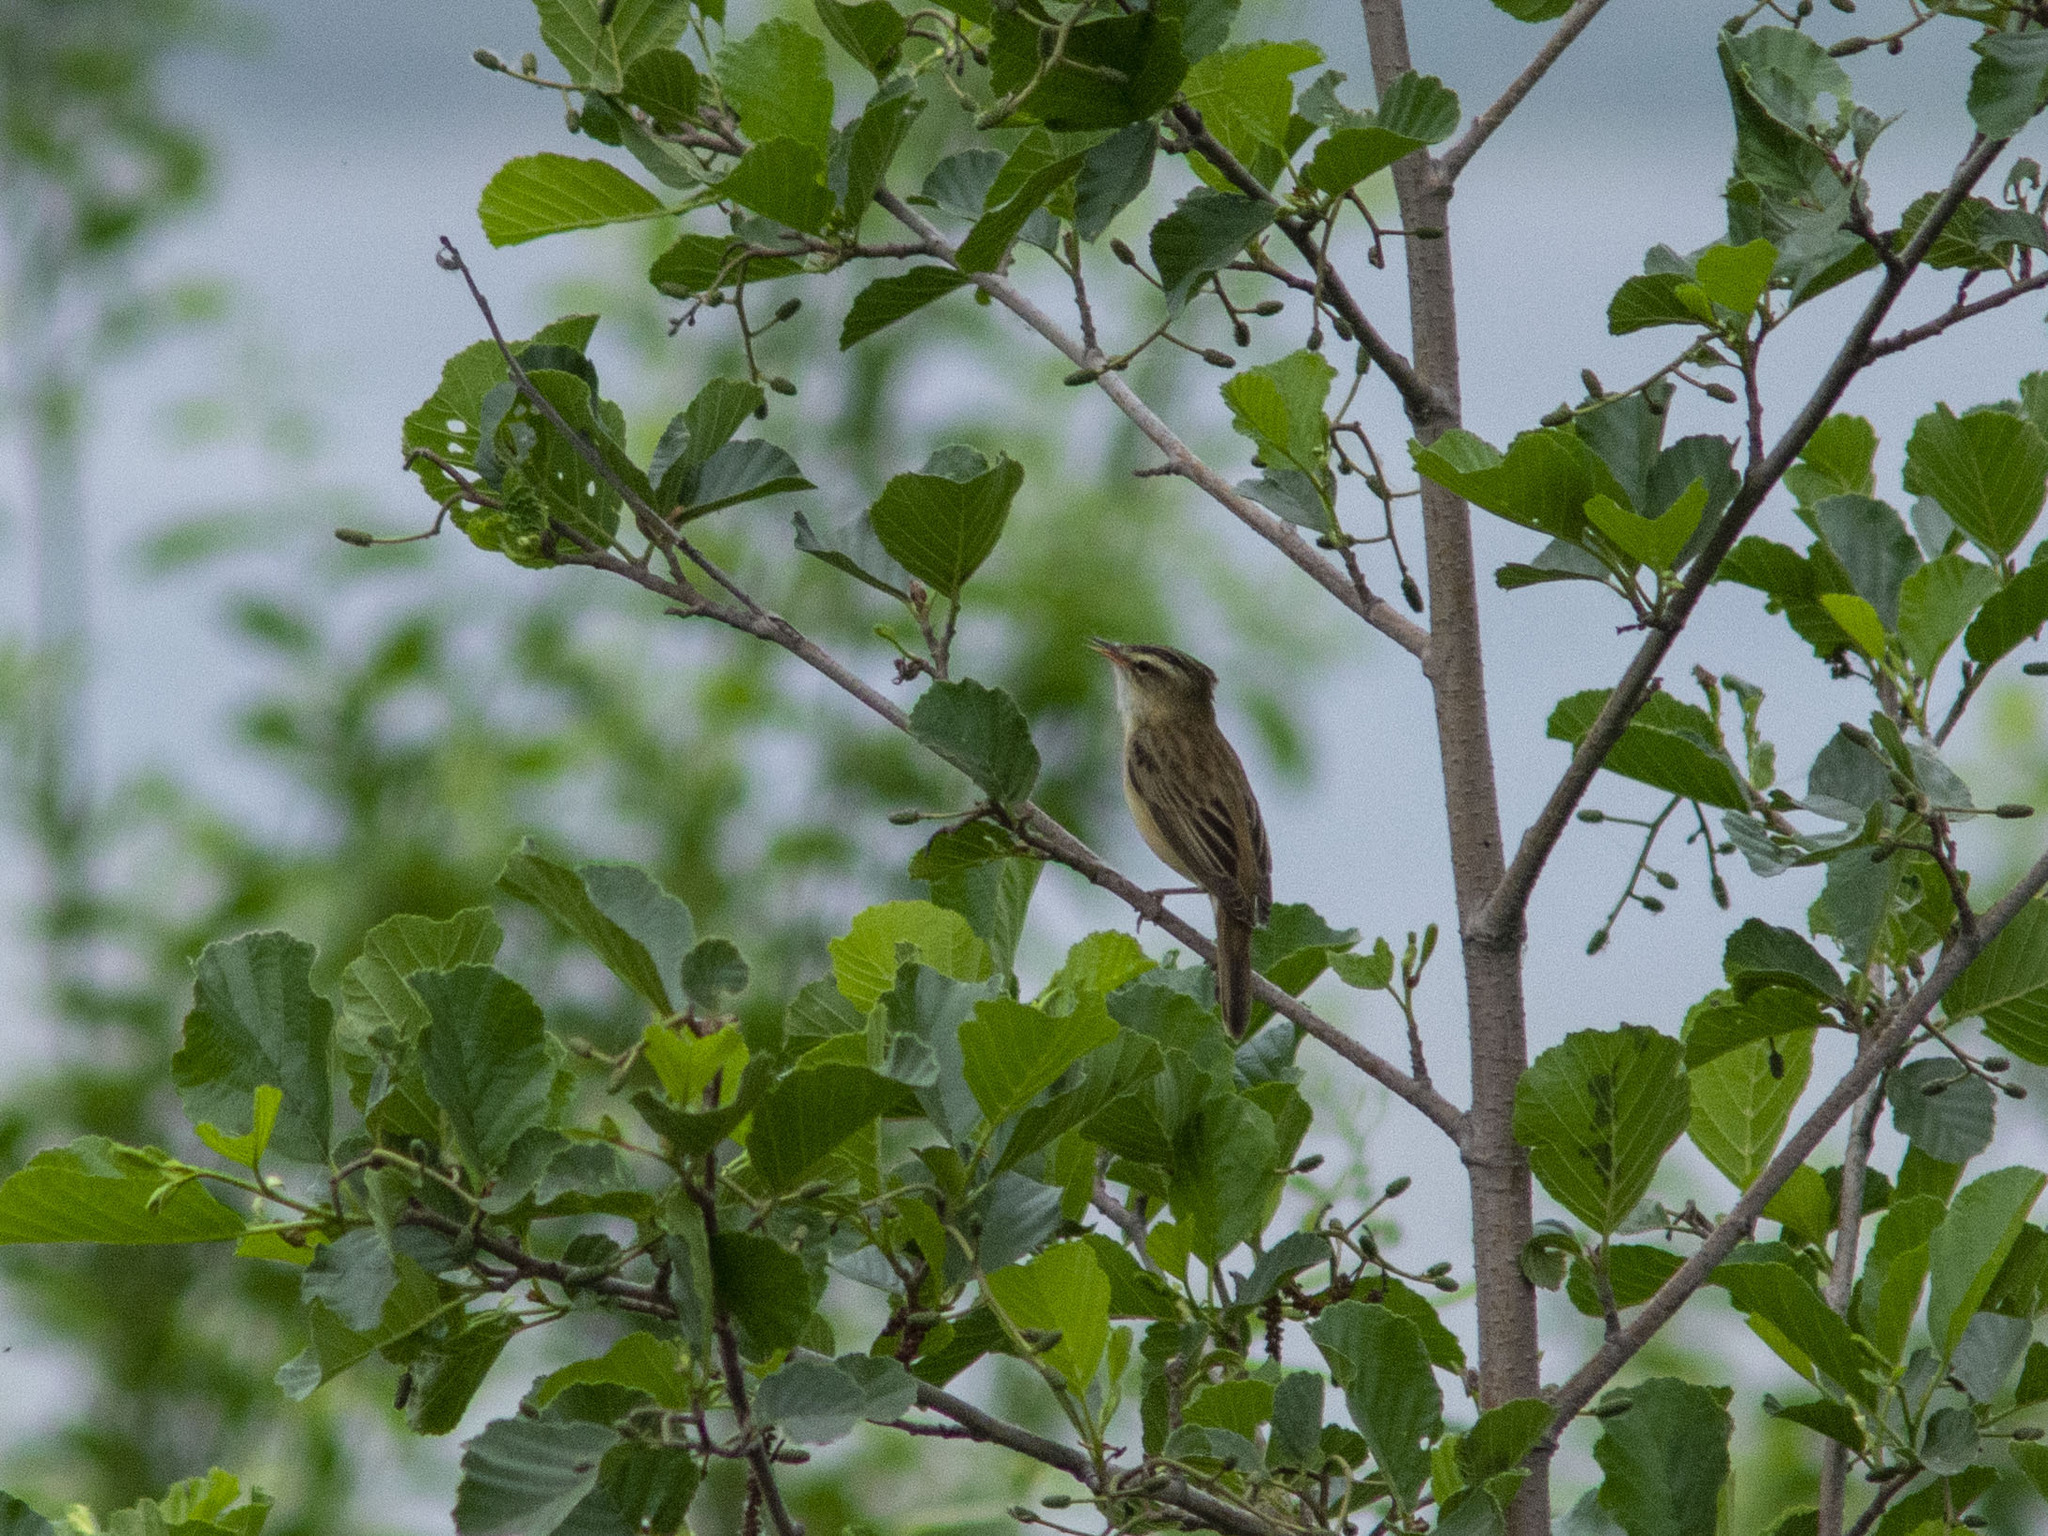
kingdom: Animalia
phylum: Chordata
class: Aves
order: Passeriformes
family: Acrocephalidae
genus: Acrocephalus
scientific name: Acrocephalus schoenobaenus
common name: Sedge warbler
